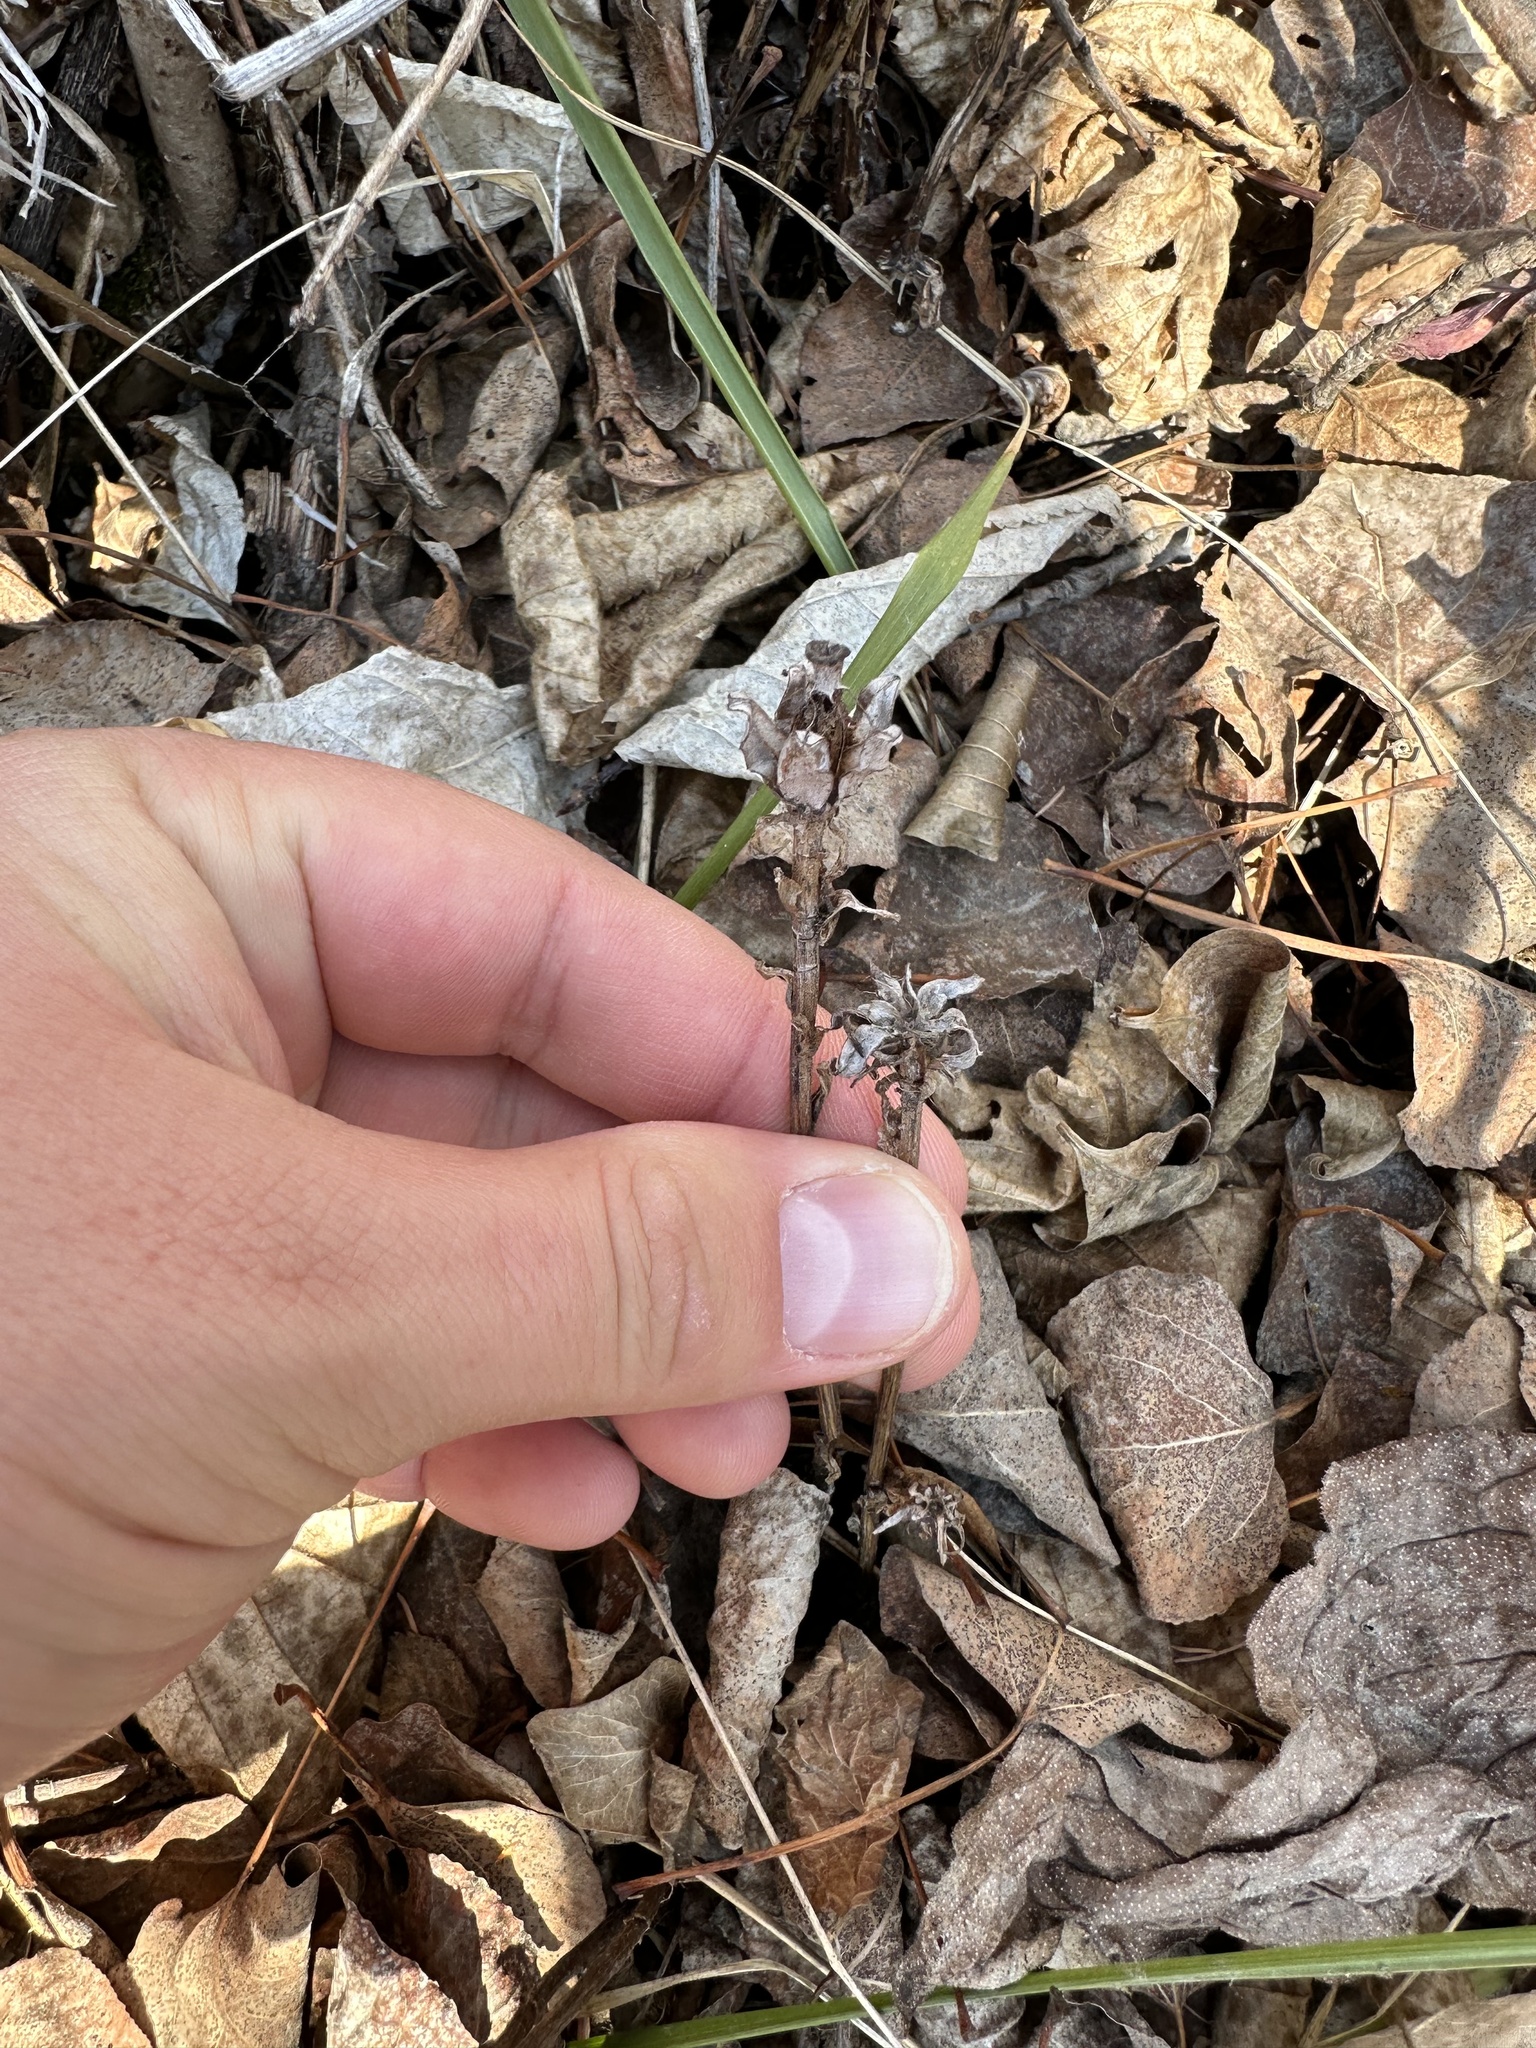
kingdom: Plantae
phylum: Tracheophyta
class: Magnoliopsida
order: Ericales
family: Ericaceae
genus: Monotropa
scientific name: Monotropa uniflora
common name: Convulsion root
